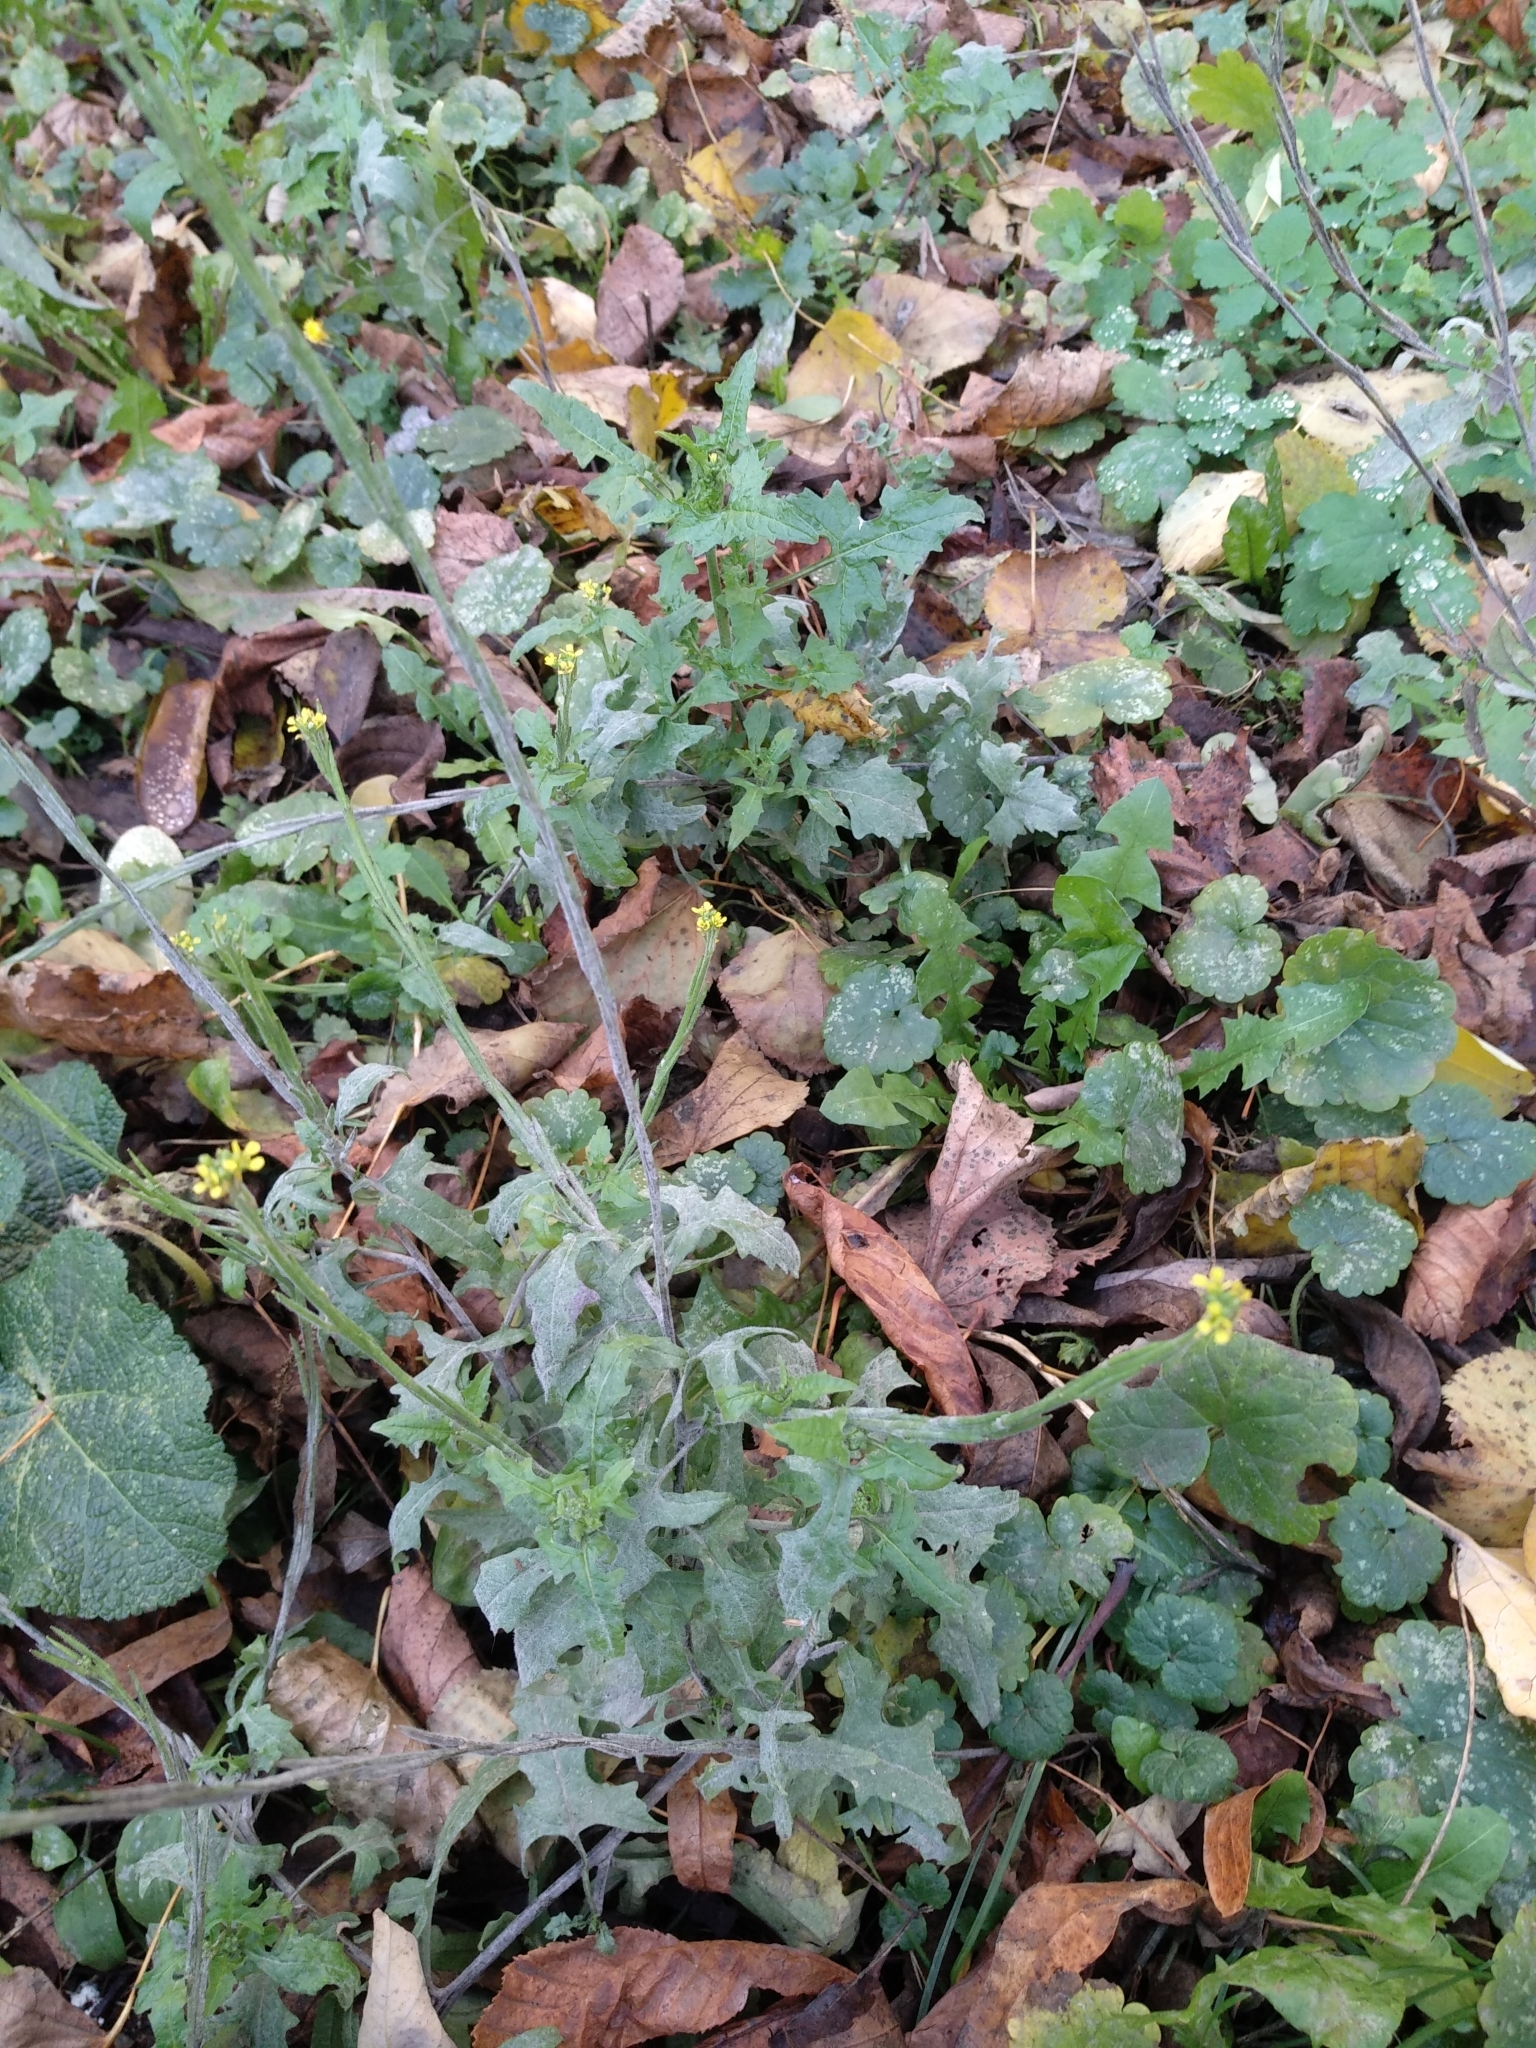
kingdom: Plantae
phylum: Tracheophyta
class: Magnoliopsida
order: Brassicales
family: Brassicaceae
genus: Sisymbrium
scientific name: Sisymbrium officinale
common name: Hedge mustard
